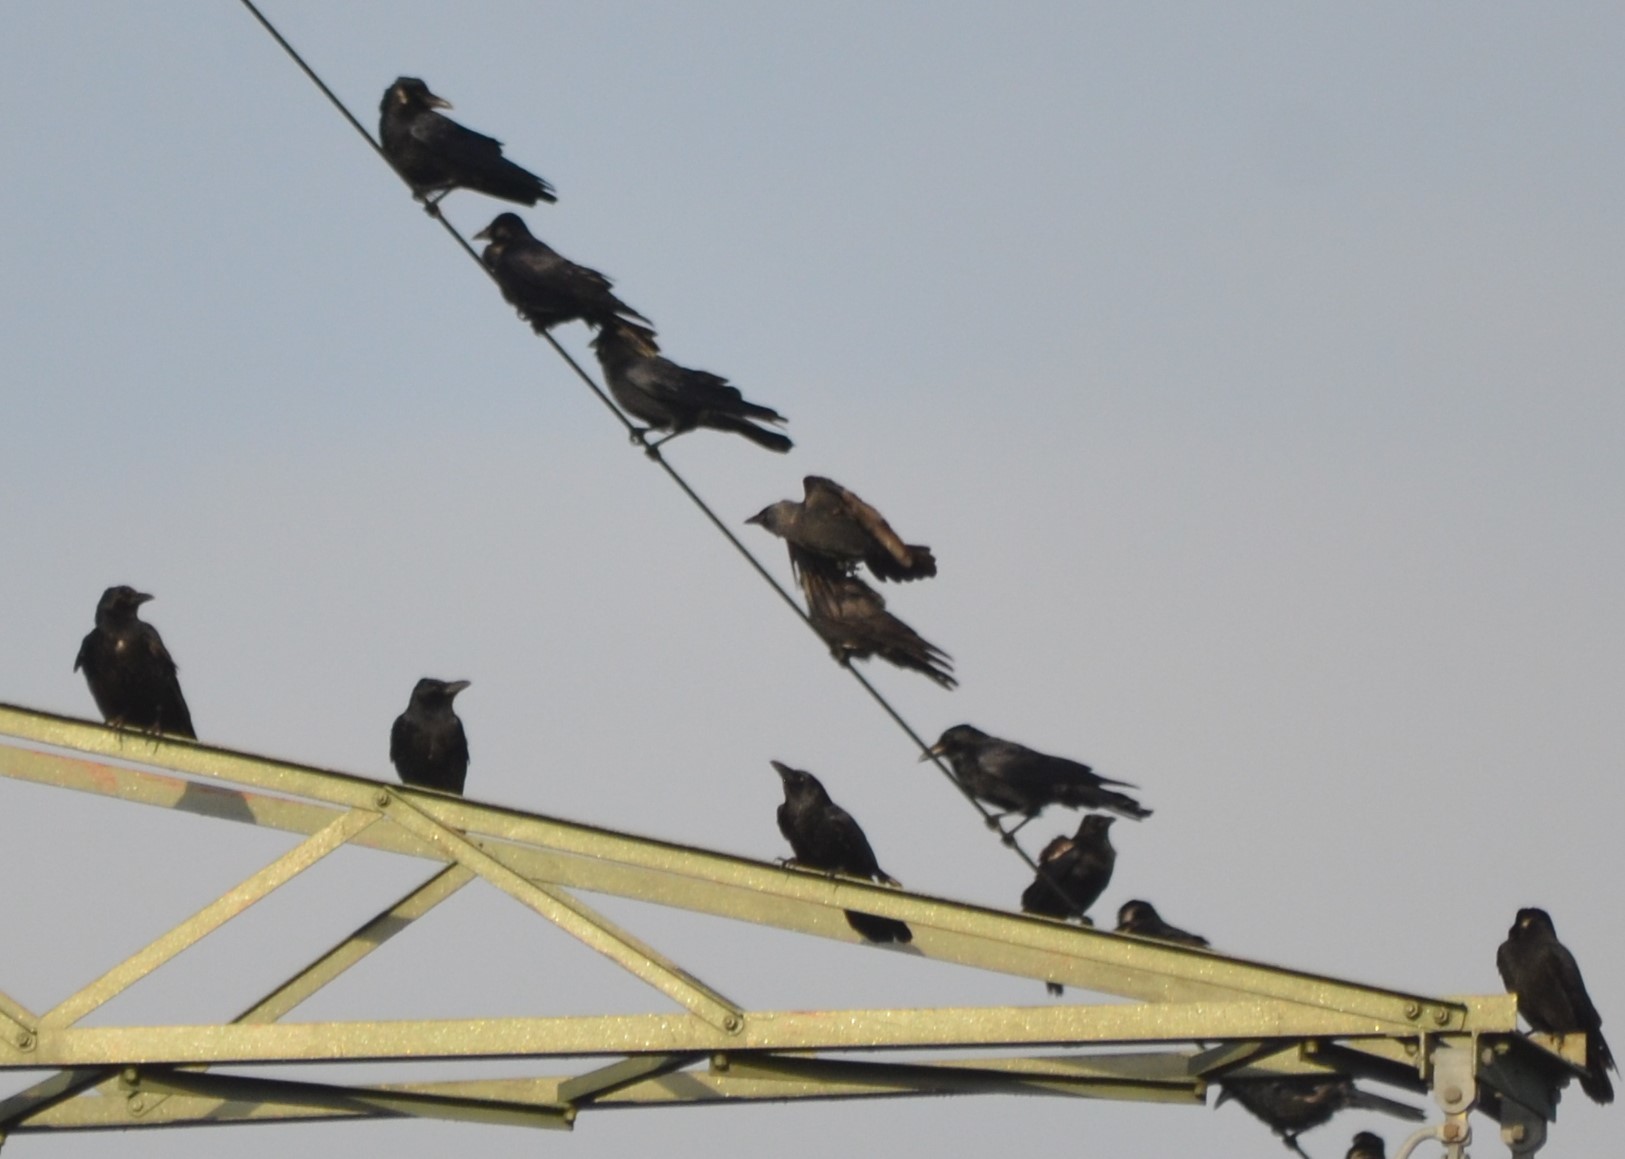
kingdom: Animalia
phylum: Chordata
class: Aves
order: Passeriformes
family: Corvidae
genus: Corvus
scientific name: Corvus corone
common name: Carrion crow
